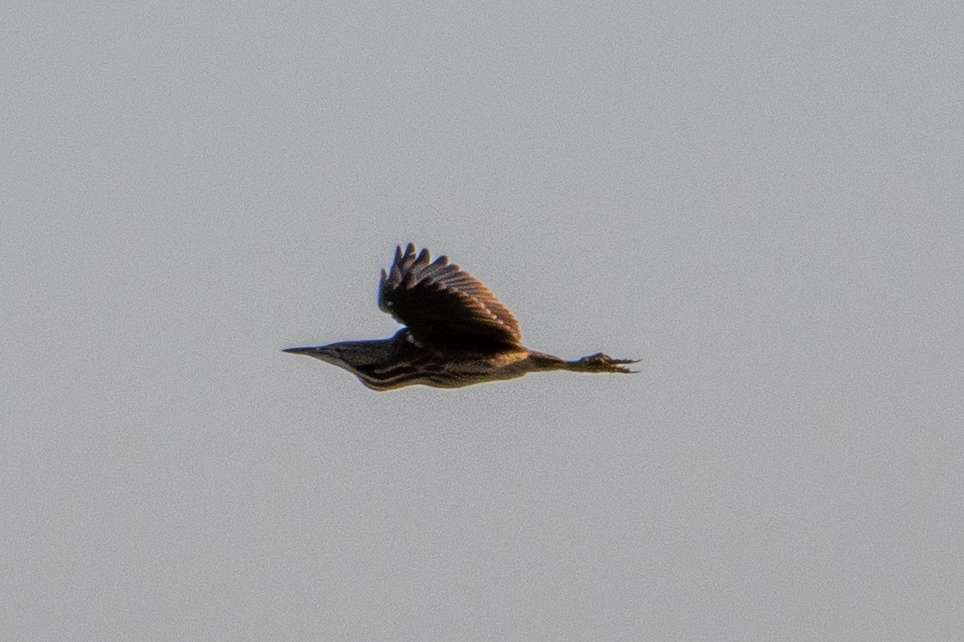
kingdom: Animalia
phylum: Chordata
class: Aves
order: Pelecaniformes
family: Ardeidae
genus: Botaurus
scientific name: Botaurus lentiginosus
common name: American bittern
